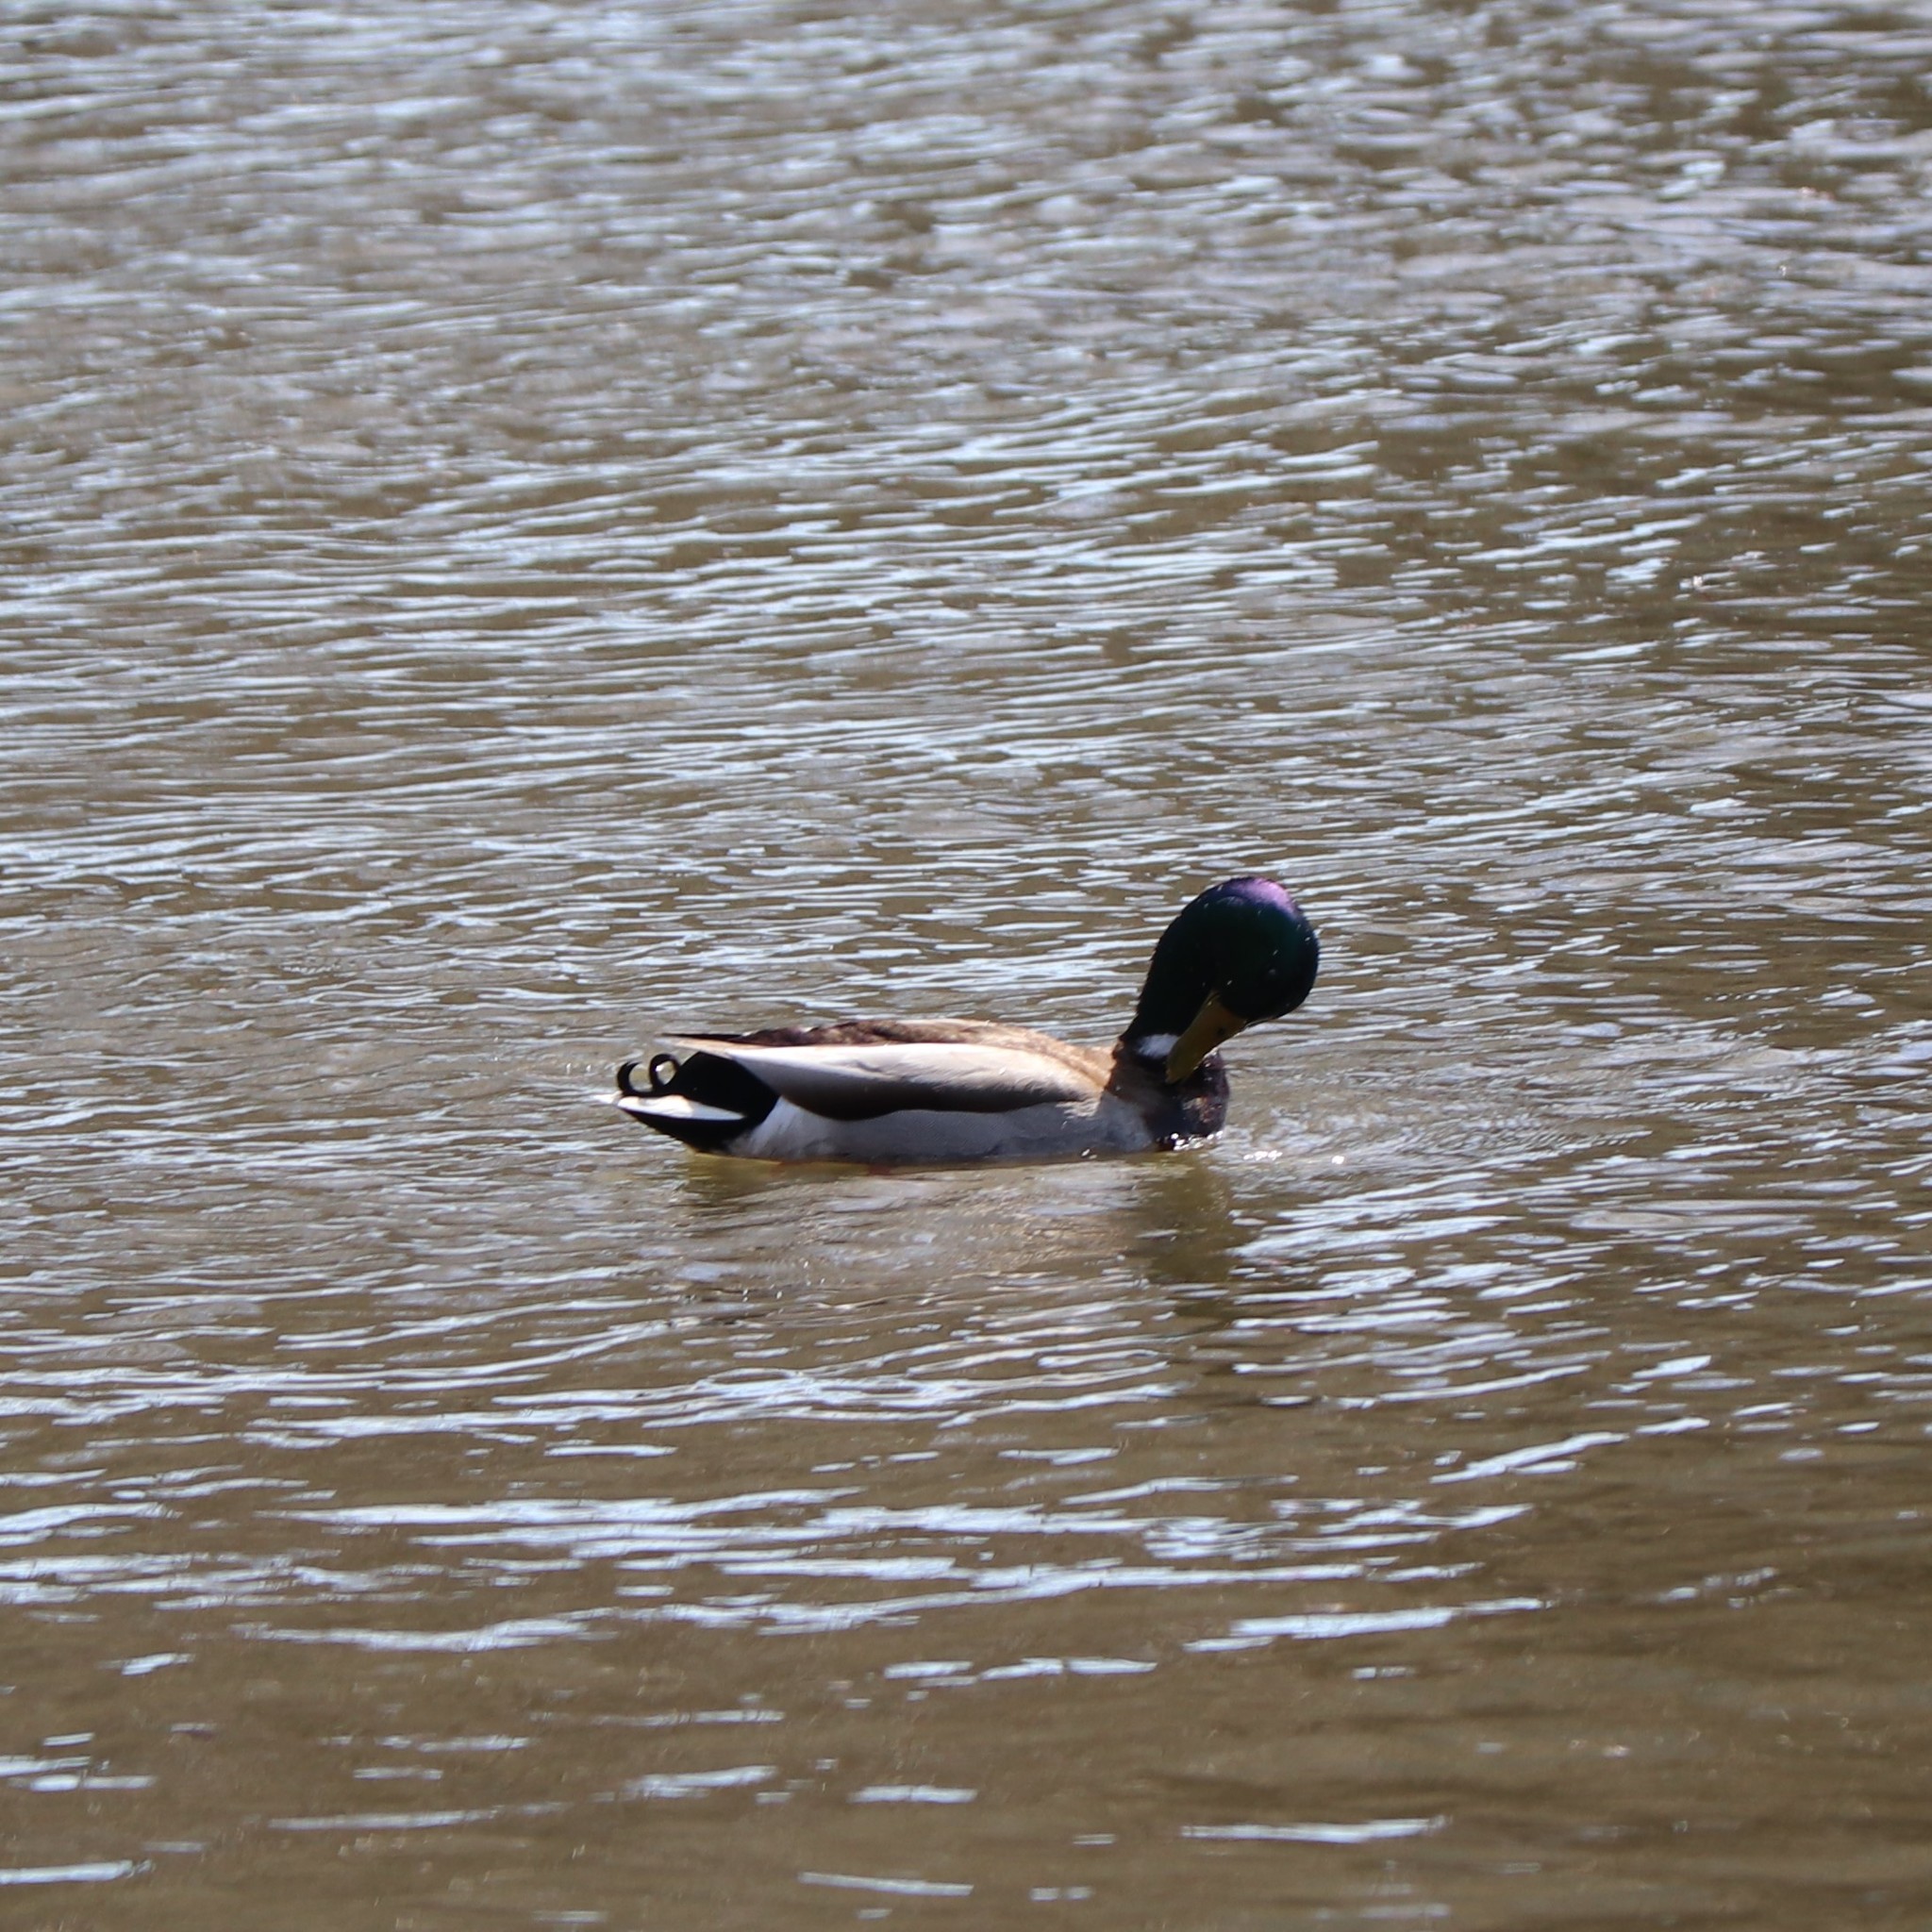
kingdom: Animalia
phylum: Chordata
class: Aves
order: Anseriformes
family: Anatidae
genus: Anas
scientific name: Anas platyrhynchos
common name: Mallard
